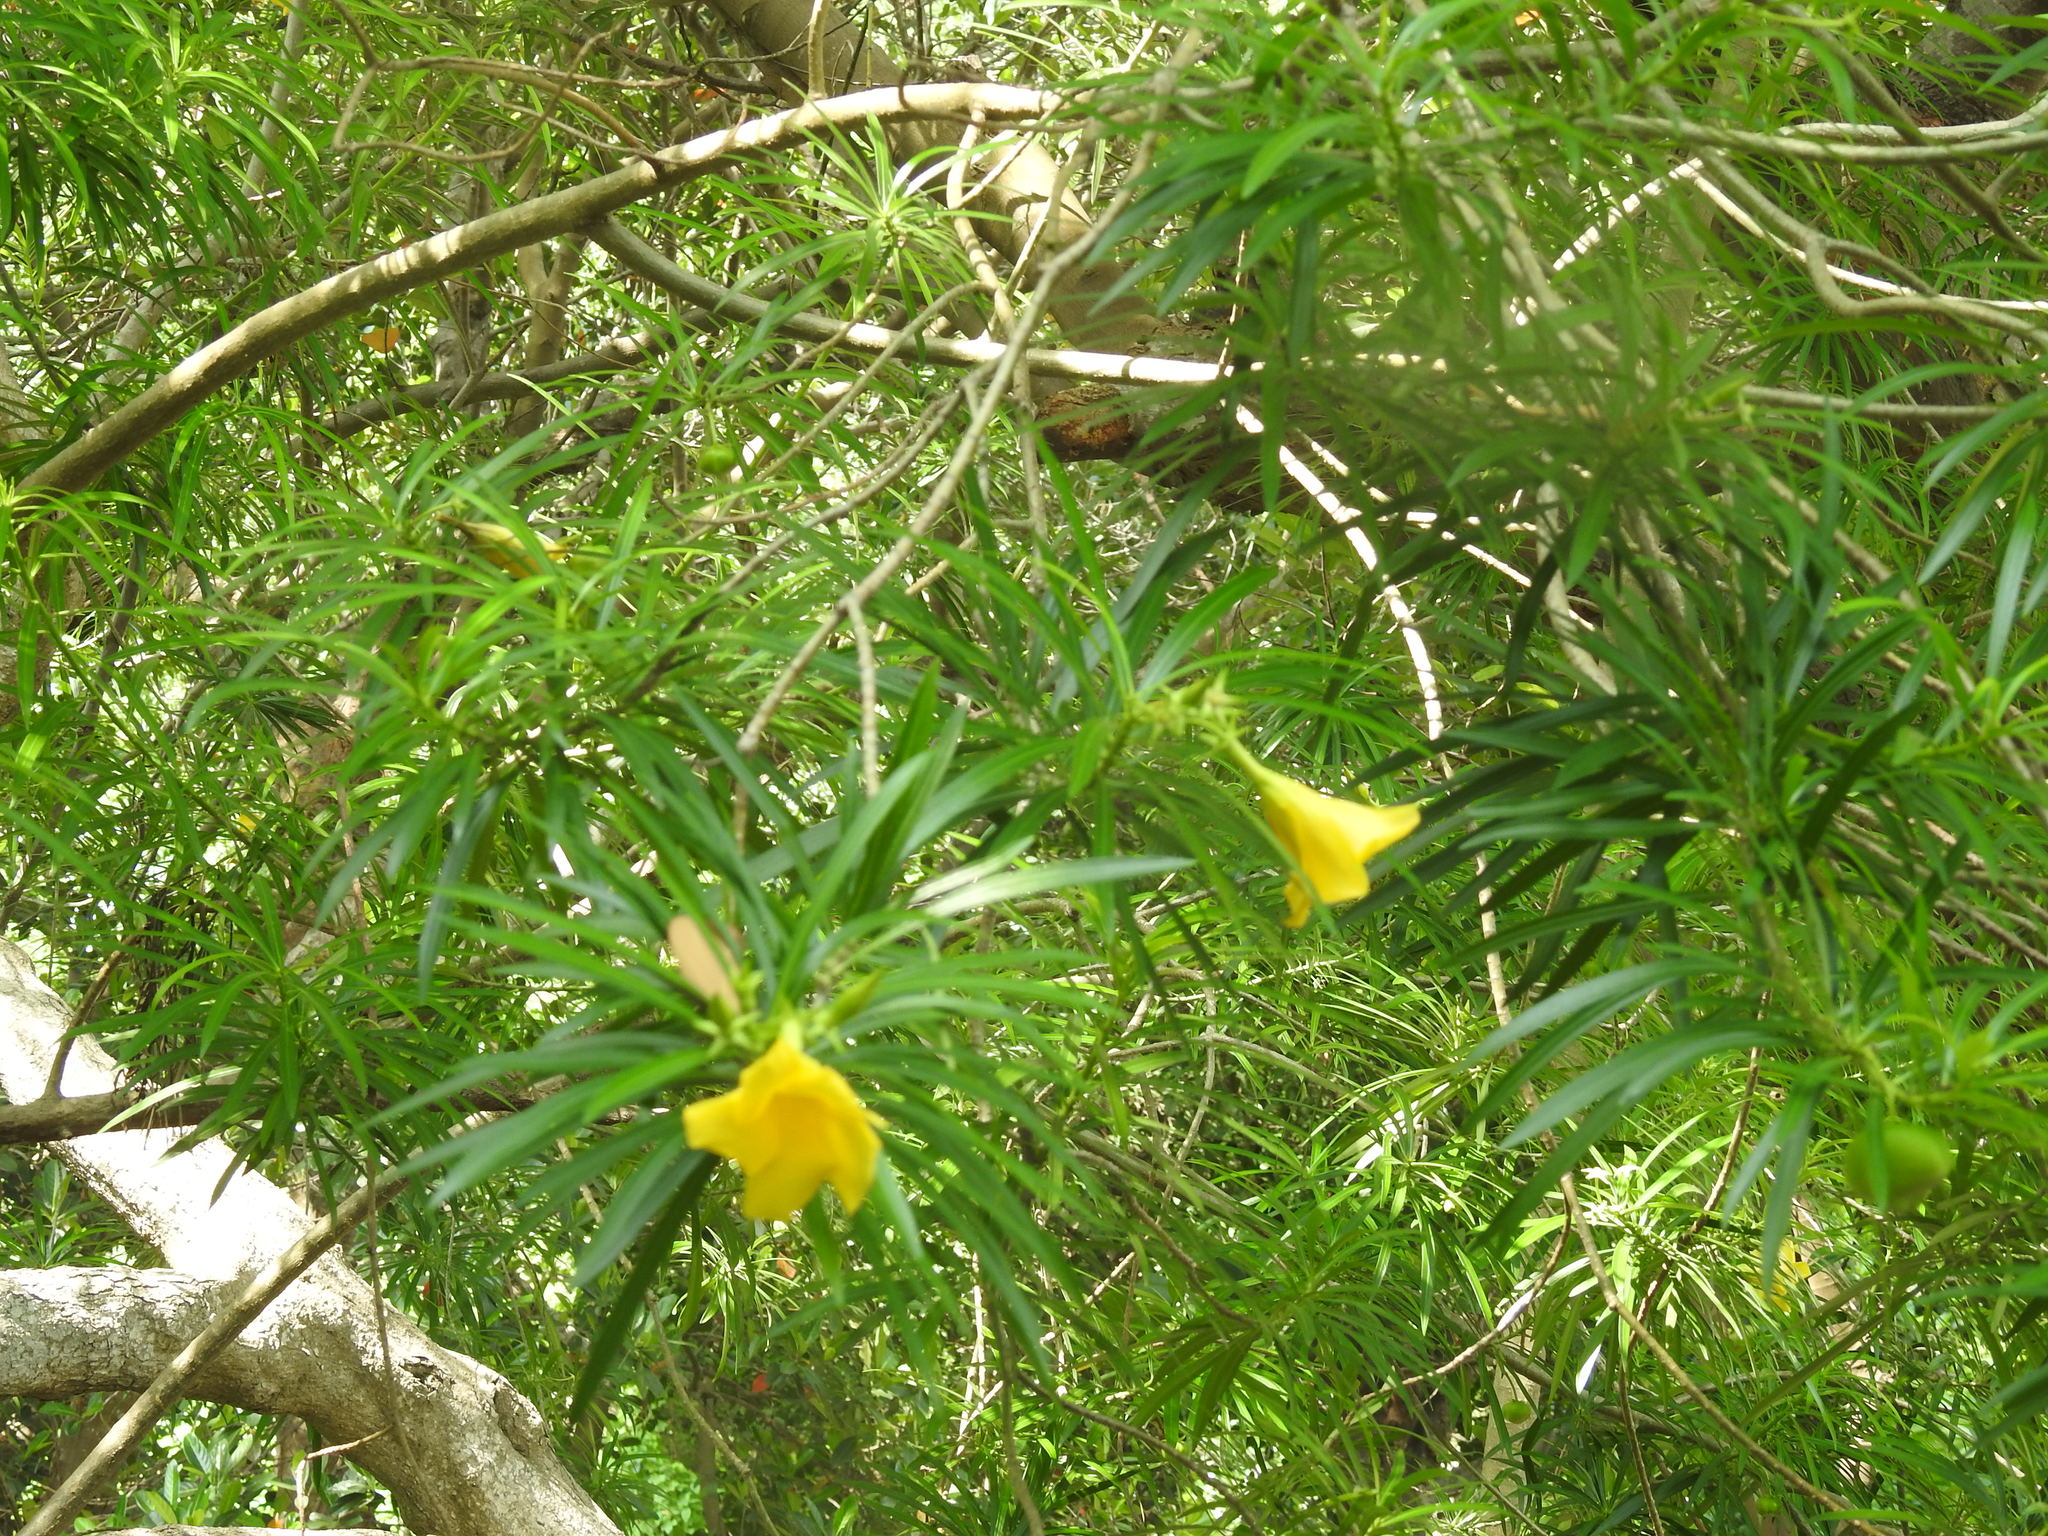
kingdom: Plantae
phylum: Tracheophyta
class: Magnoliopsida
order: Gentianales
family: Apocynaceae
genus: Cascabela
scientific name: Cascabela thevetia
